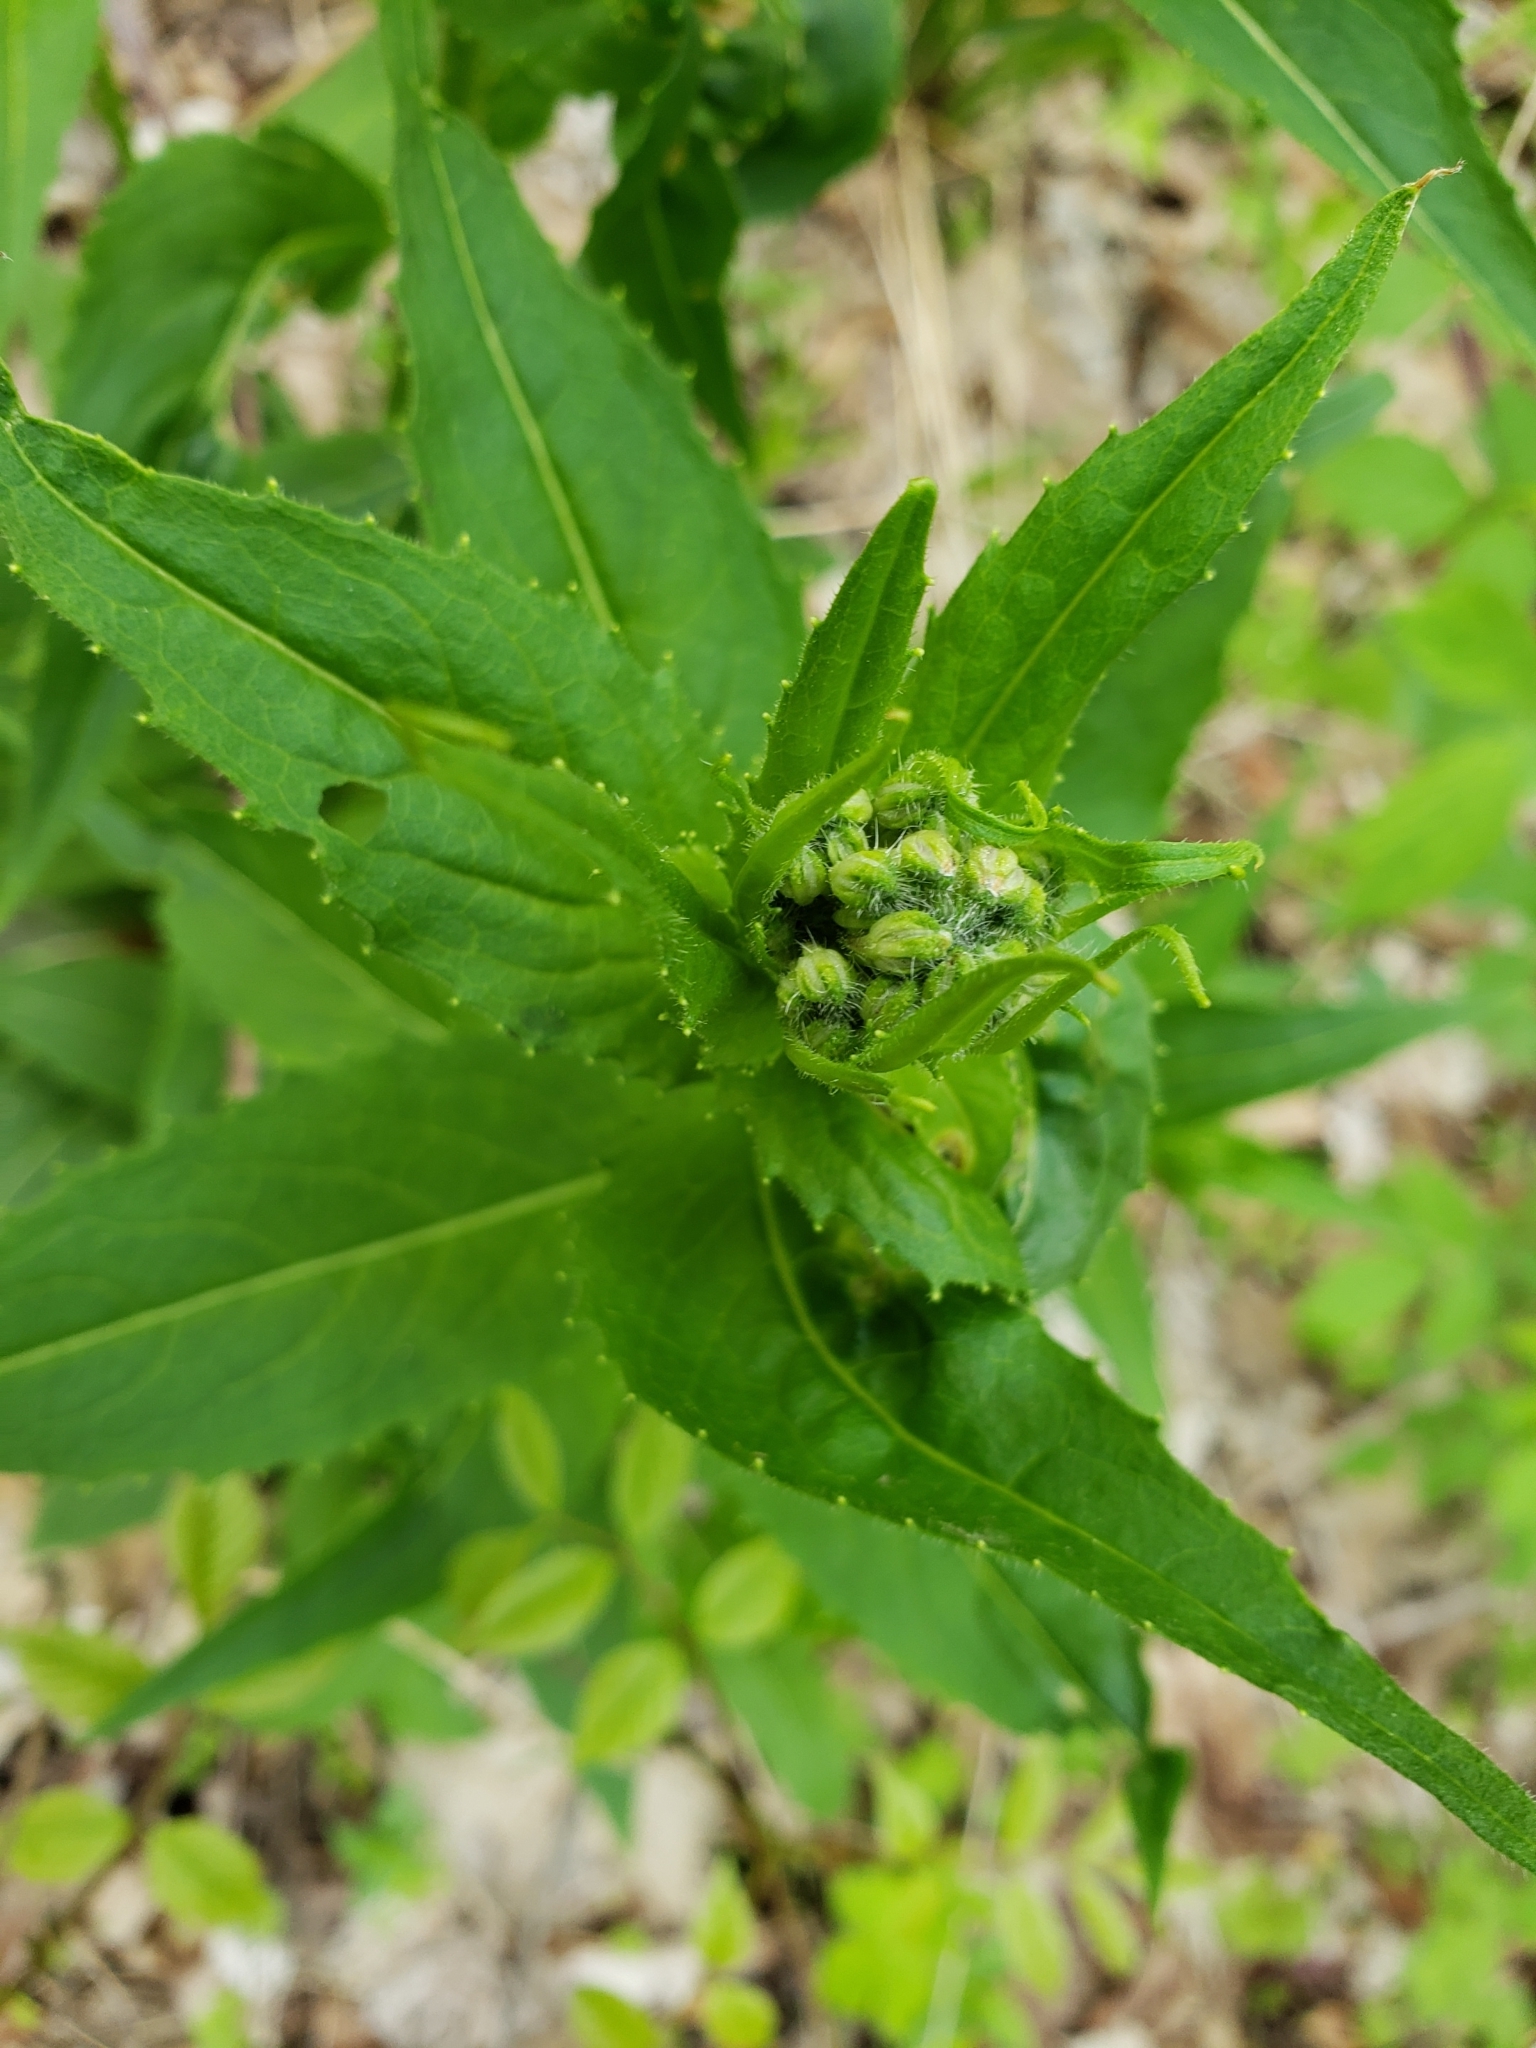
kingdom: Plantae
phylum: Tracheophyta
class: Magnoliopsida
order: Brassicales
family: Brassicaceae
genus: Hesperis
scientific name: Hesperis matronalis
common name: Dame's-violet
